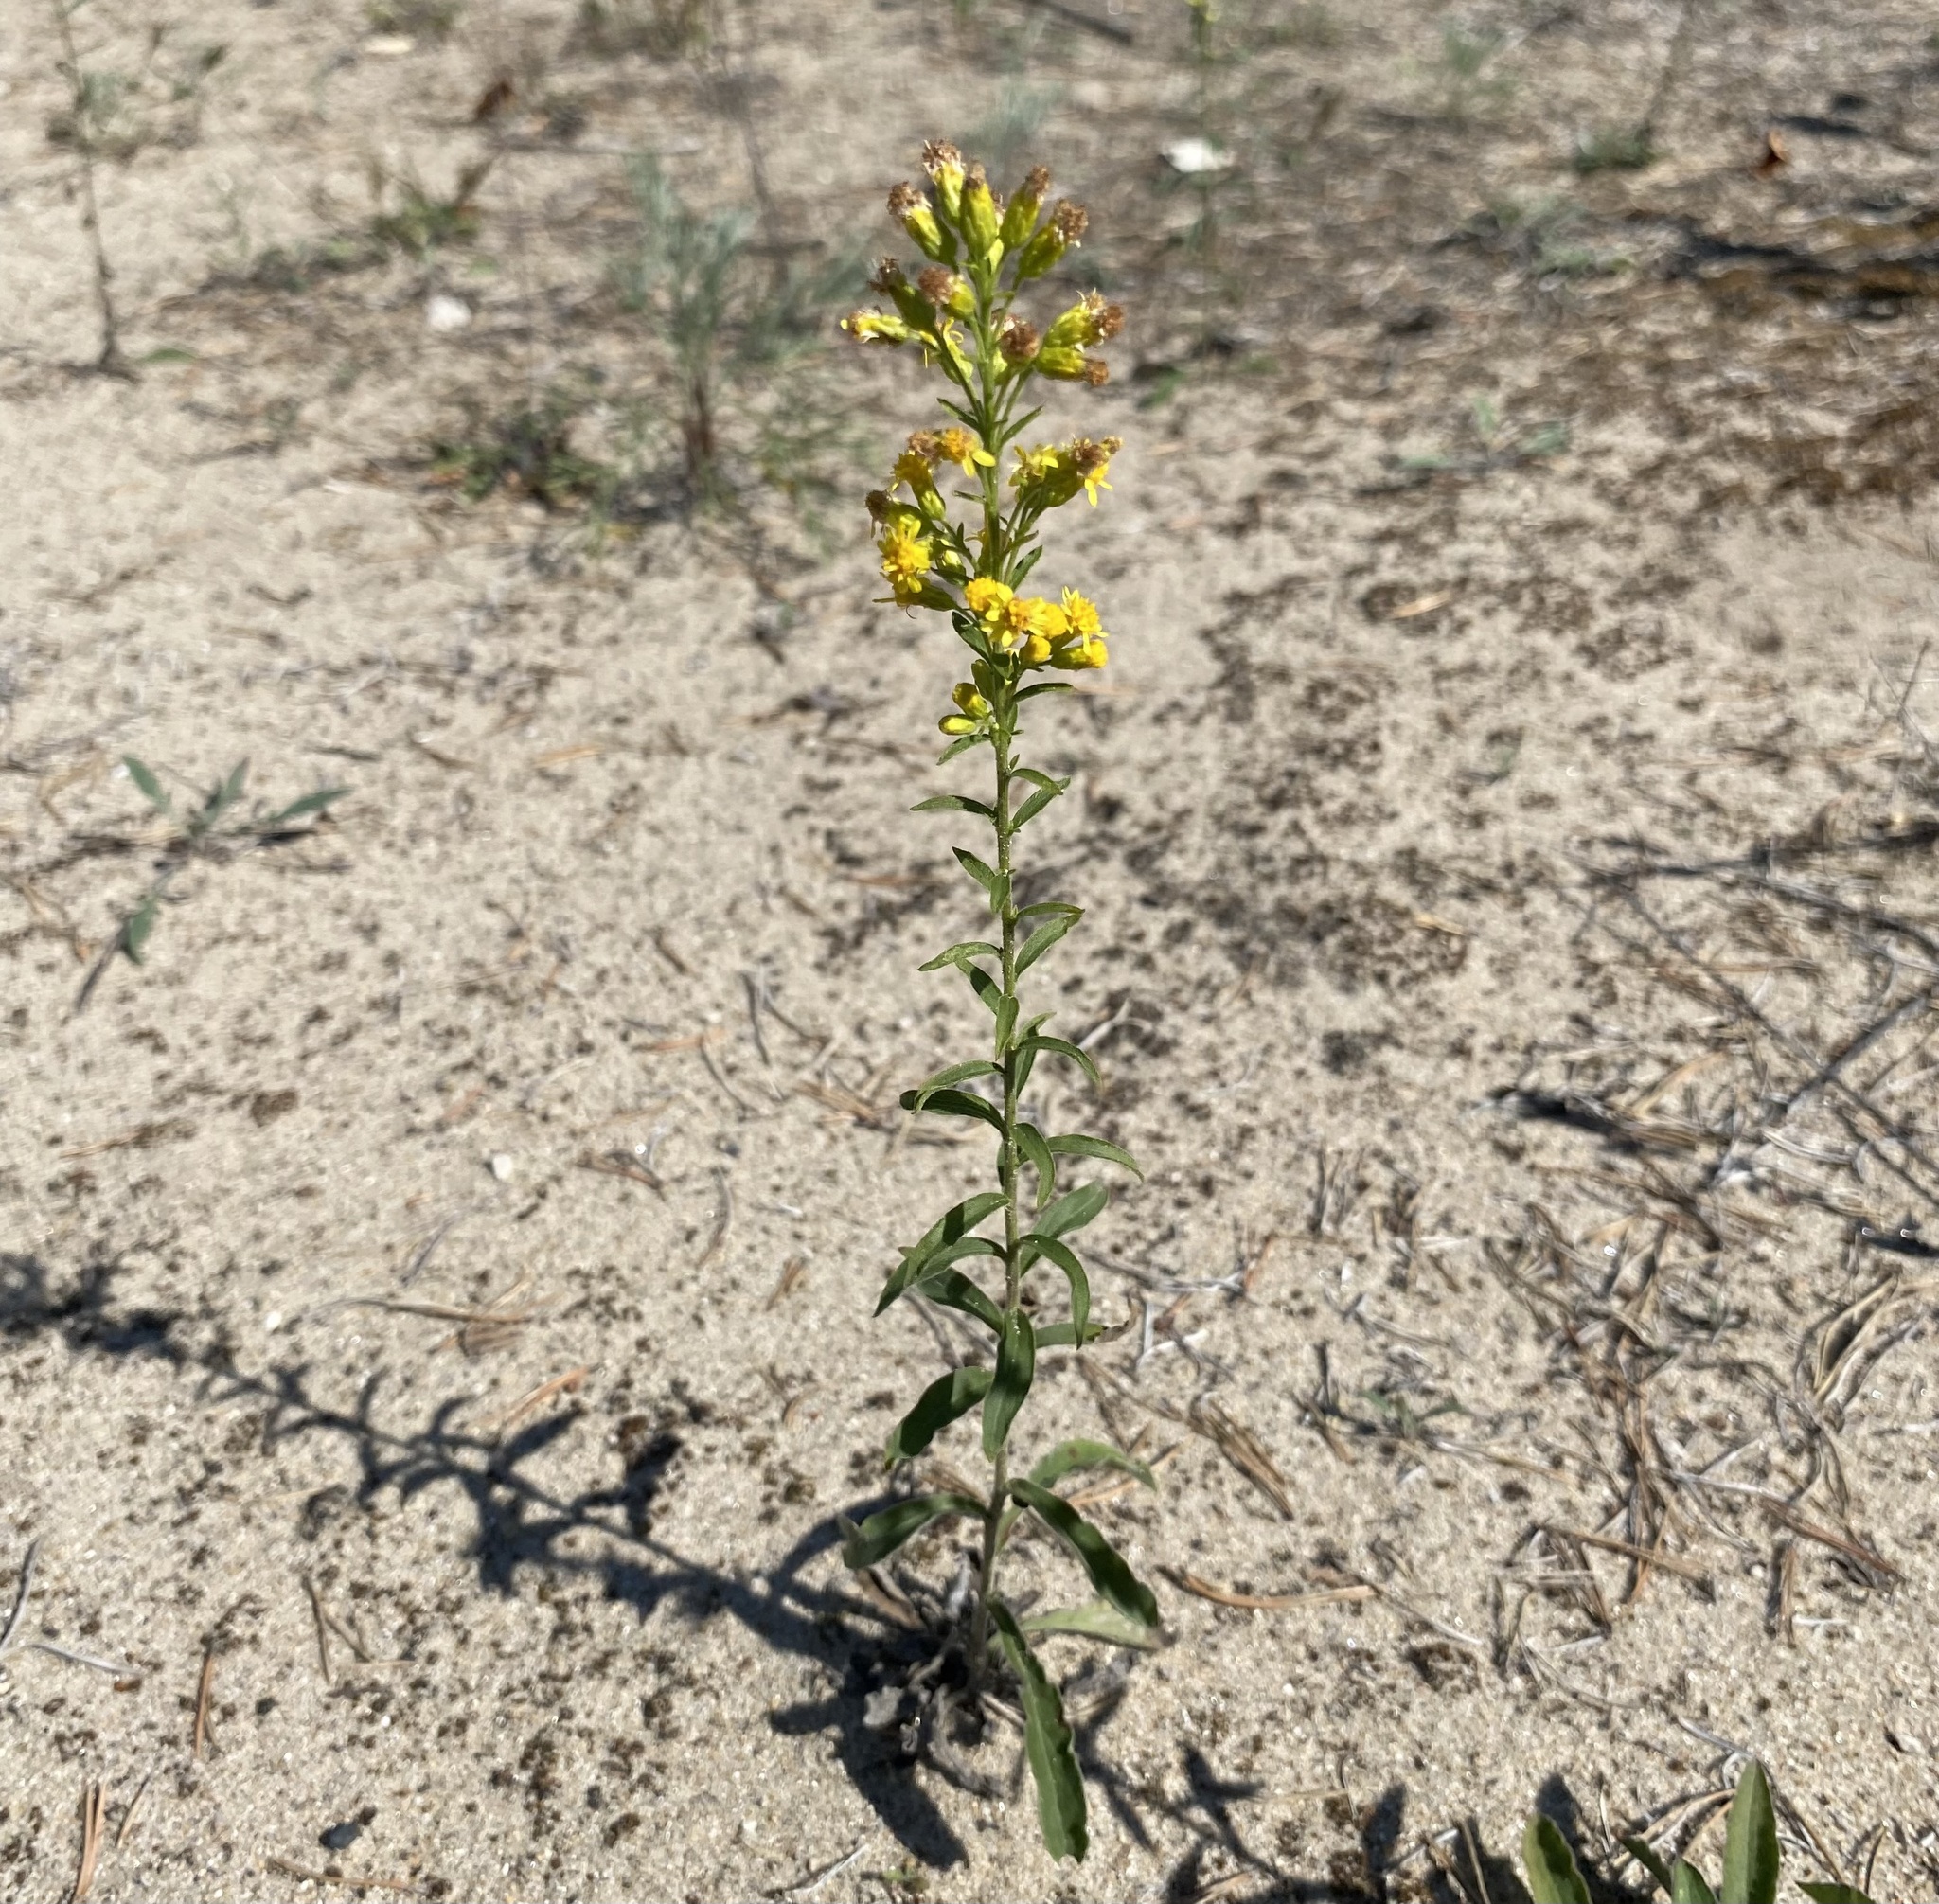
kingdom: Plantae
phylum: Tracheophyta
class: Magnoliopsida
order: Asterales
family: Asteraceae
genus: Solidago
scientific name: Solidago hispida
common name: Hairy goldenrod
